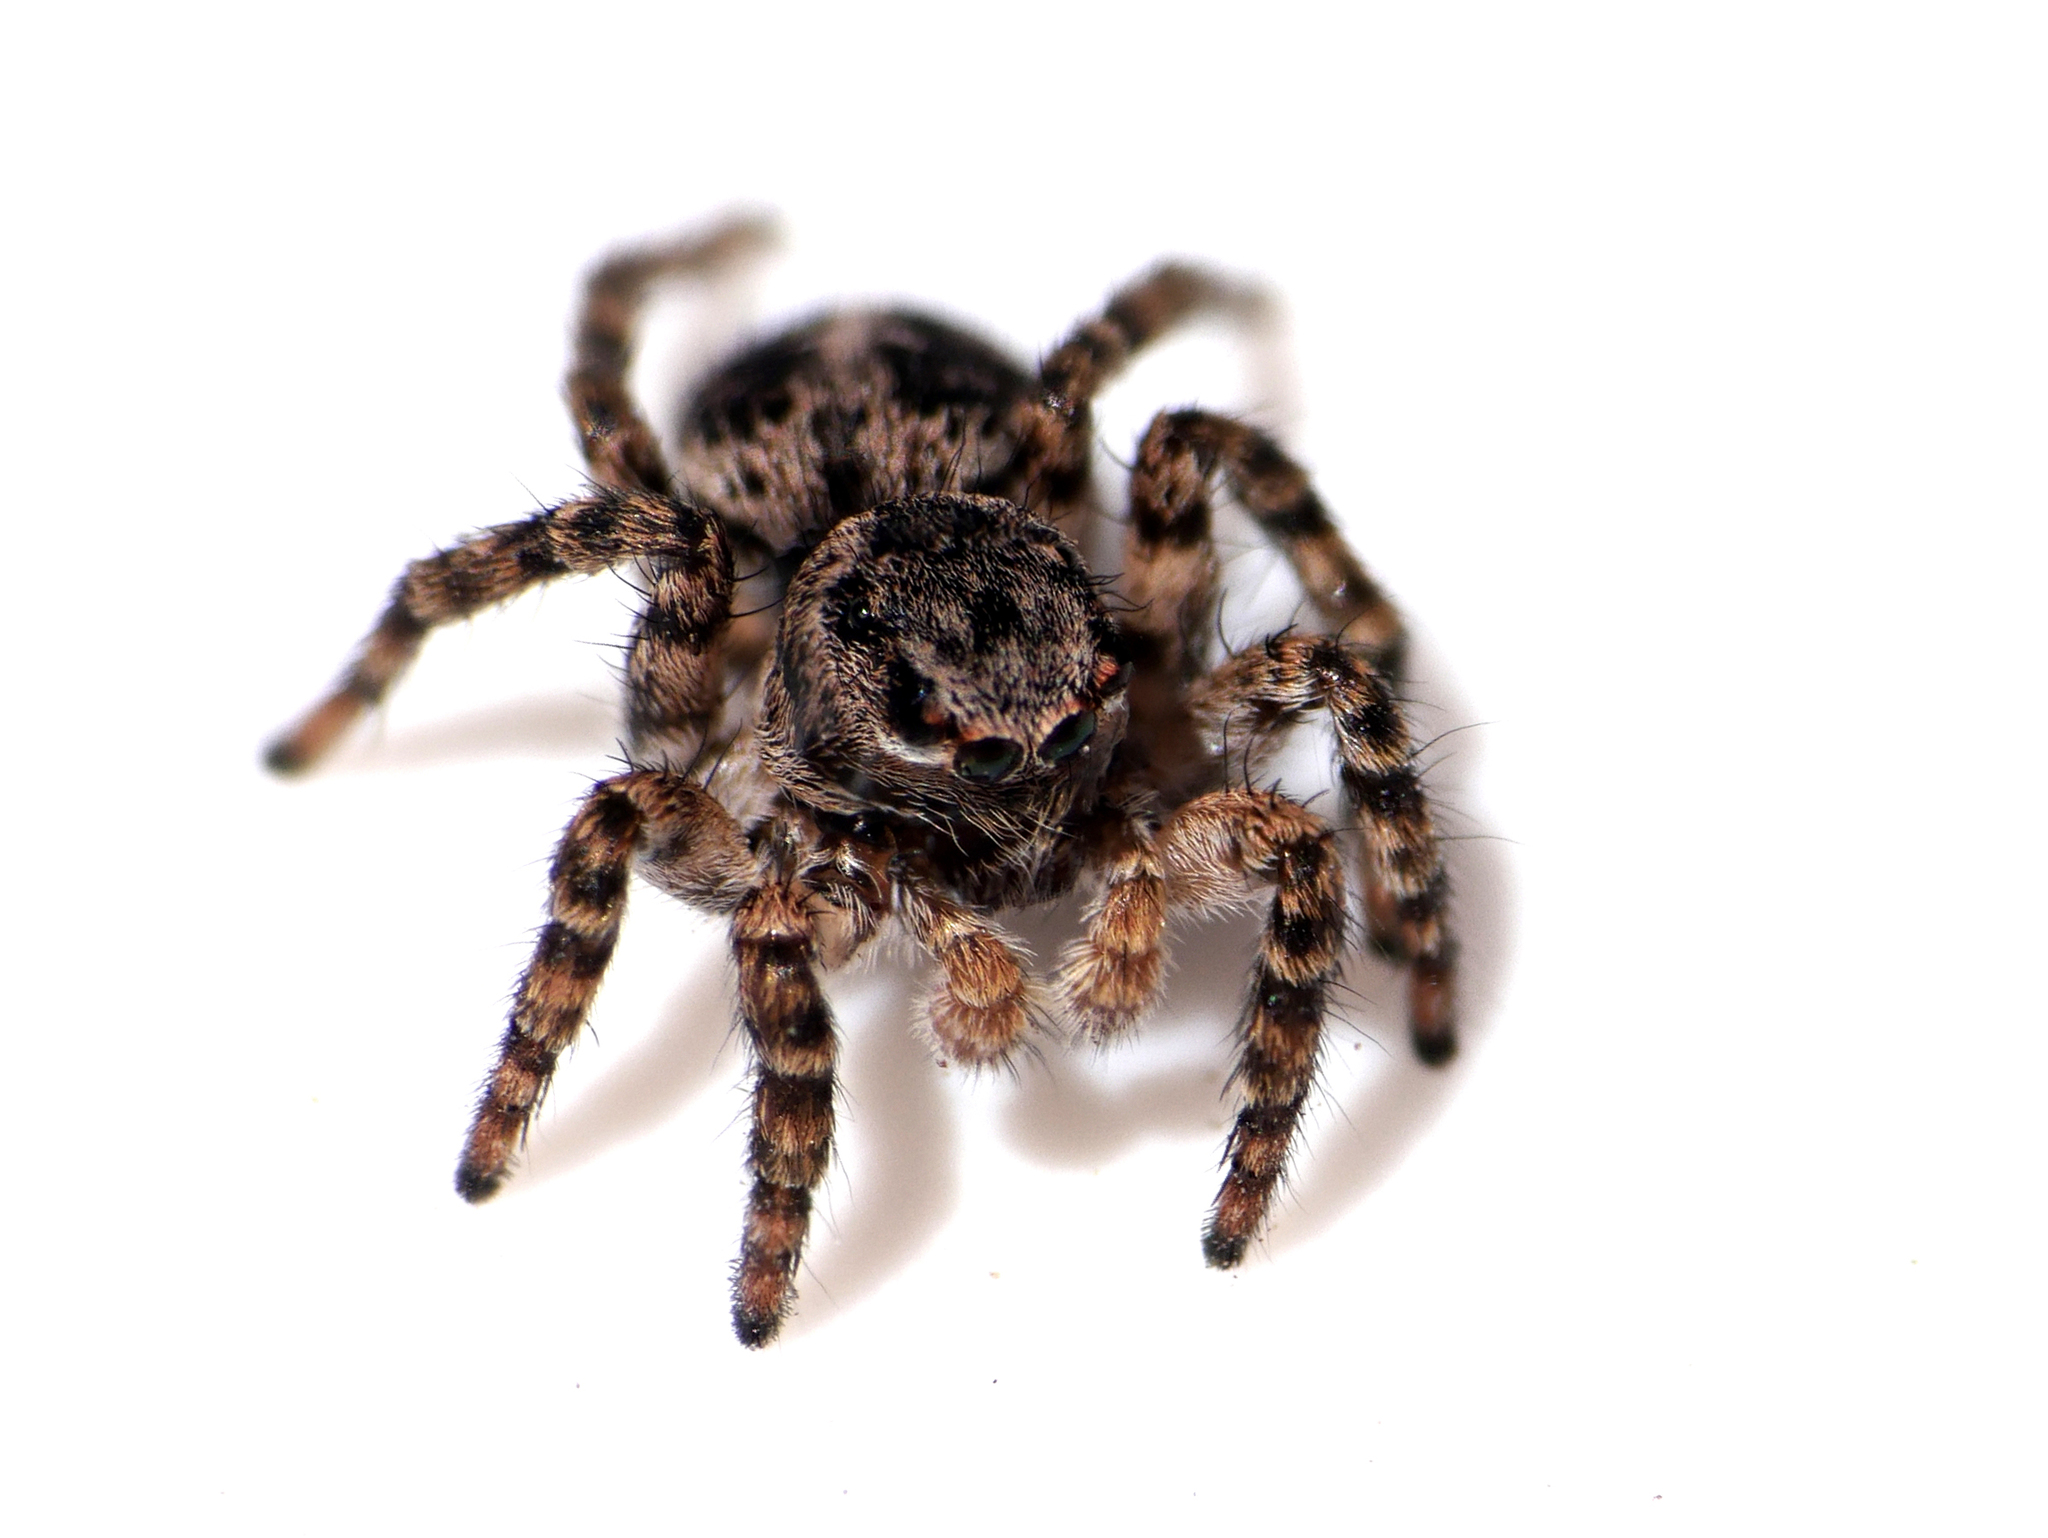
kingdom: Animalia
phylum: Arthropoda
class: Arachnida
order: Araneae
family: Salticidae
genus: Aelurillus
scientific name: Aelurillus v-insignitus
